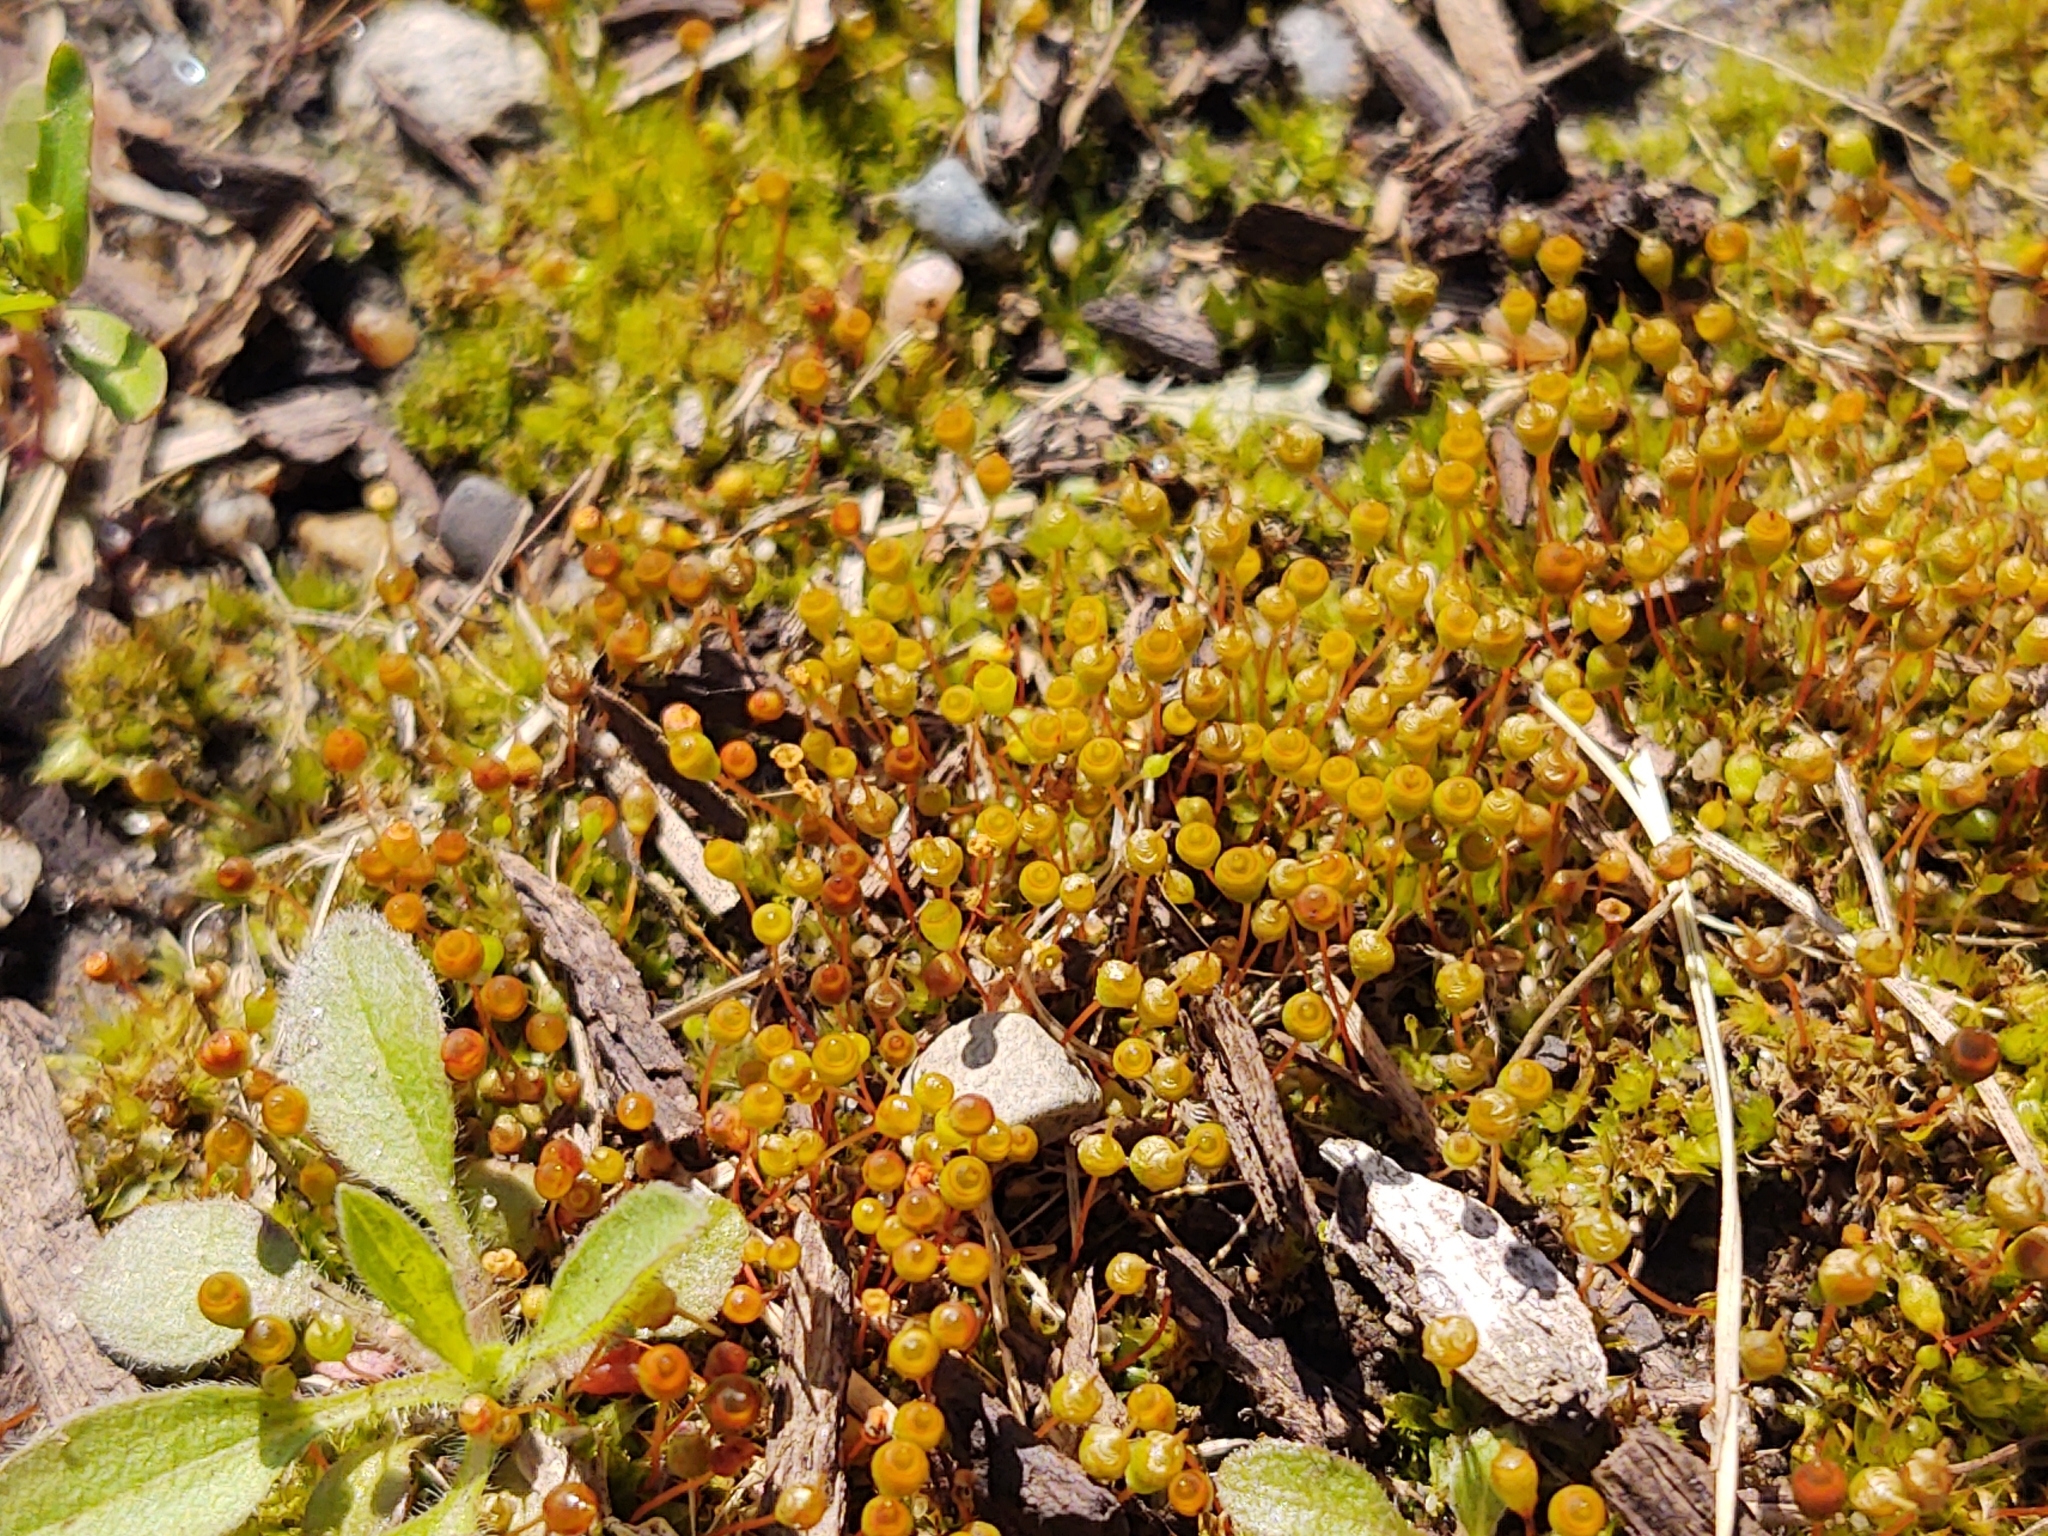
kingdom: Plantae
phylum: Bryophyta
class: Bryopsida
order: Funariales
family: Funariaceae
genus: Physcomitrium
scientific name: Physcomitrium pyriforme
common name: Common bladder-moss
